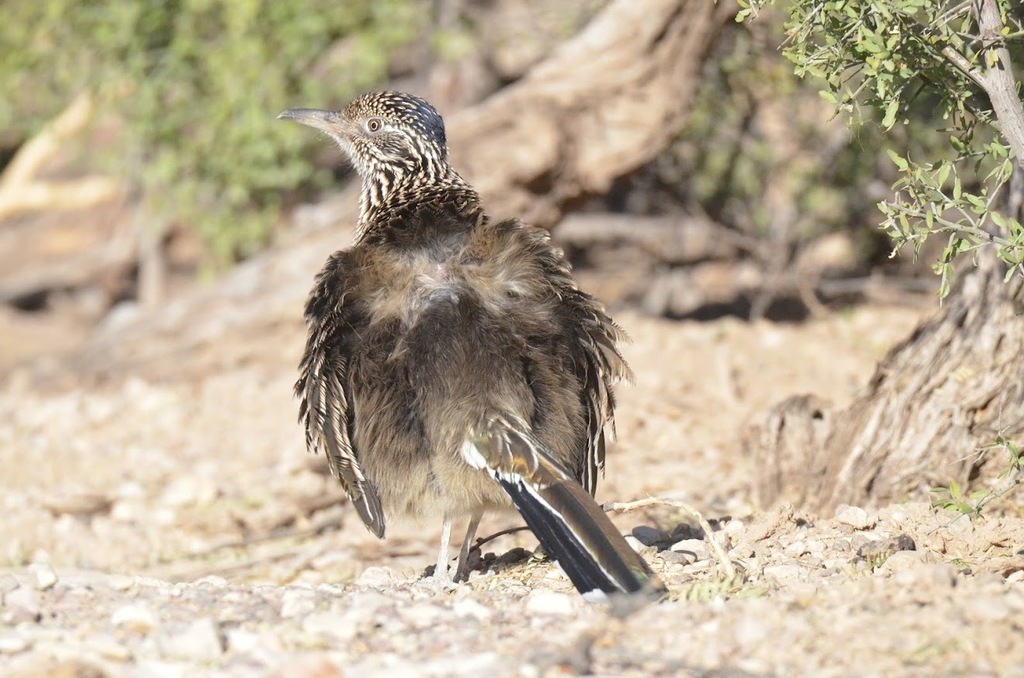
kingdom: Animalia
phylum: Chordata
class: Aves
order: Cuculiformes
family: Cuculidae
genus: Geococcyx
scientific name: Geococcyx californianus
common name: Greater roadrunner
